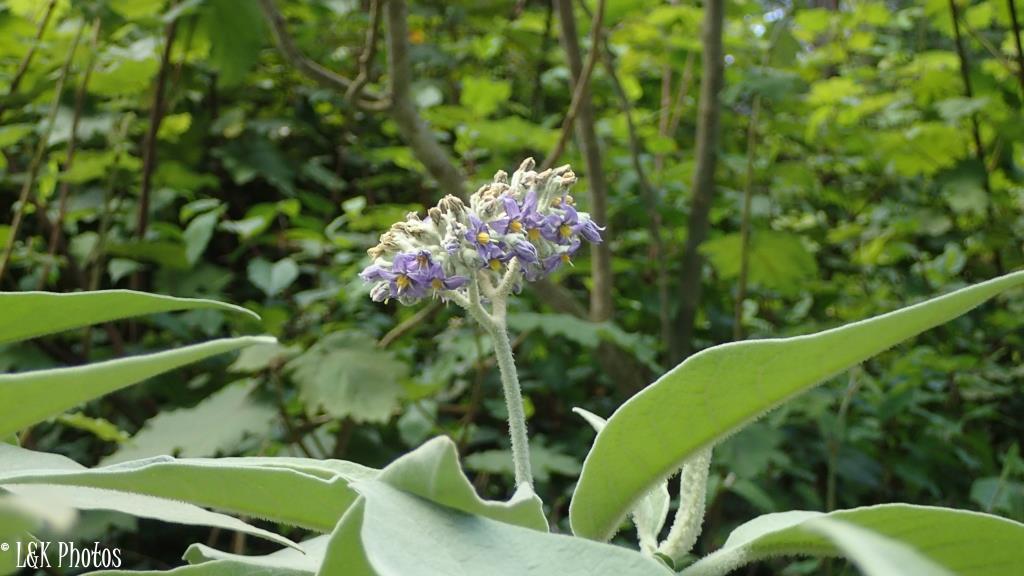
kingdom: Plantae
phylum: Tracheophyta
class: Magnoliopsida
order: Solanales
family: Solanaceae
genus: Solanum
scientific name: Solanum mauritianum
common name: Earleaf nightshade
